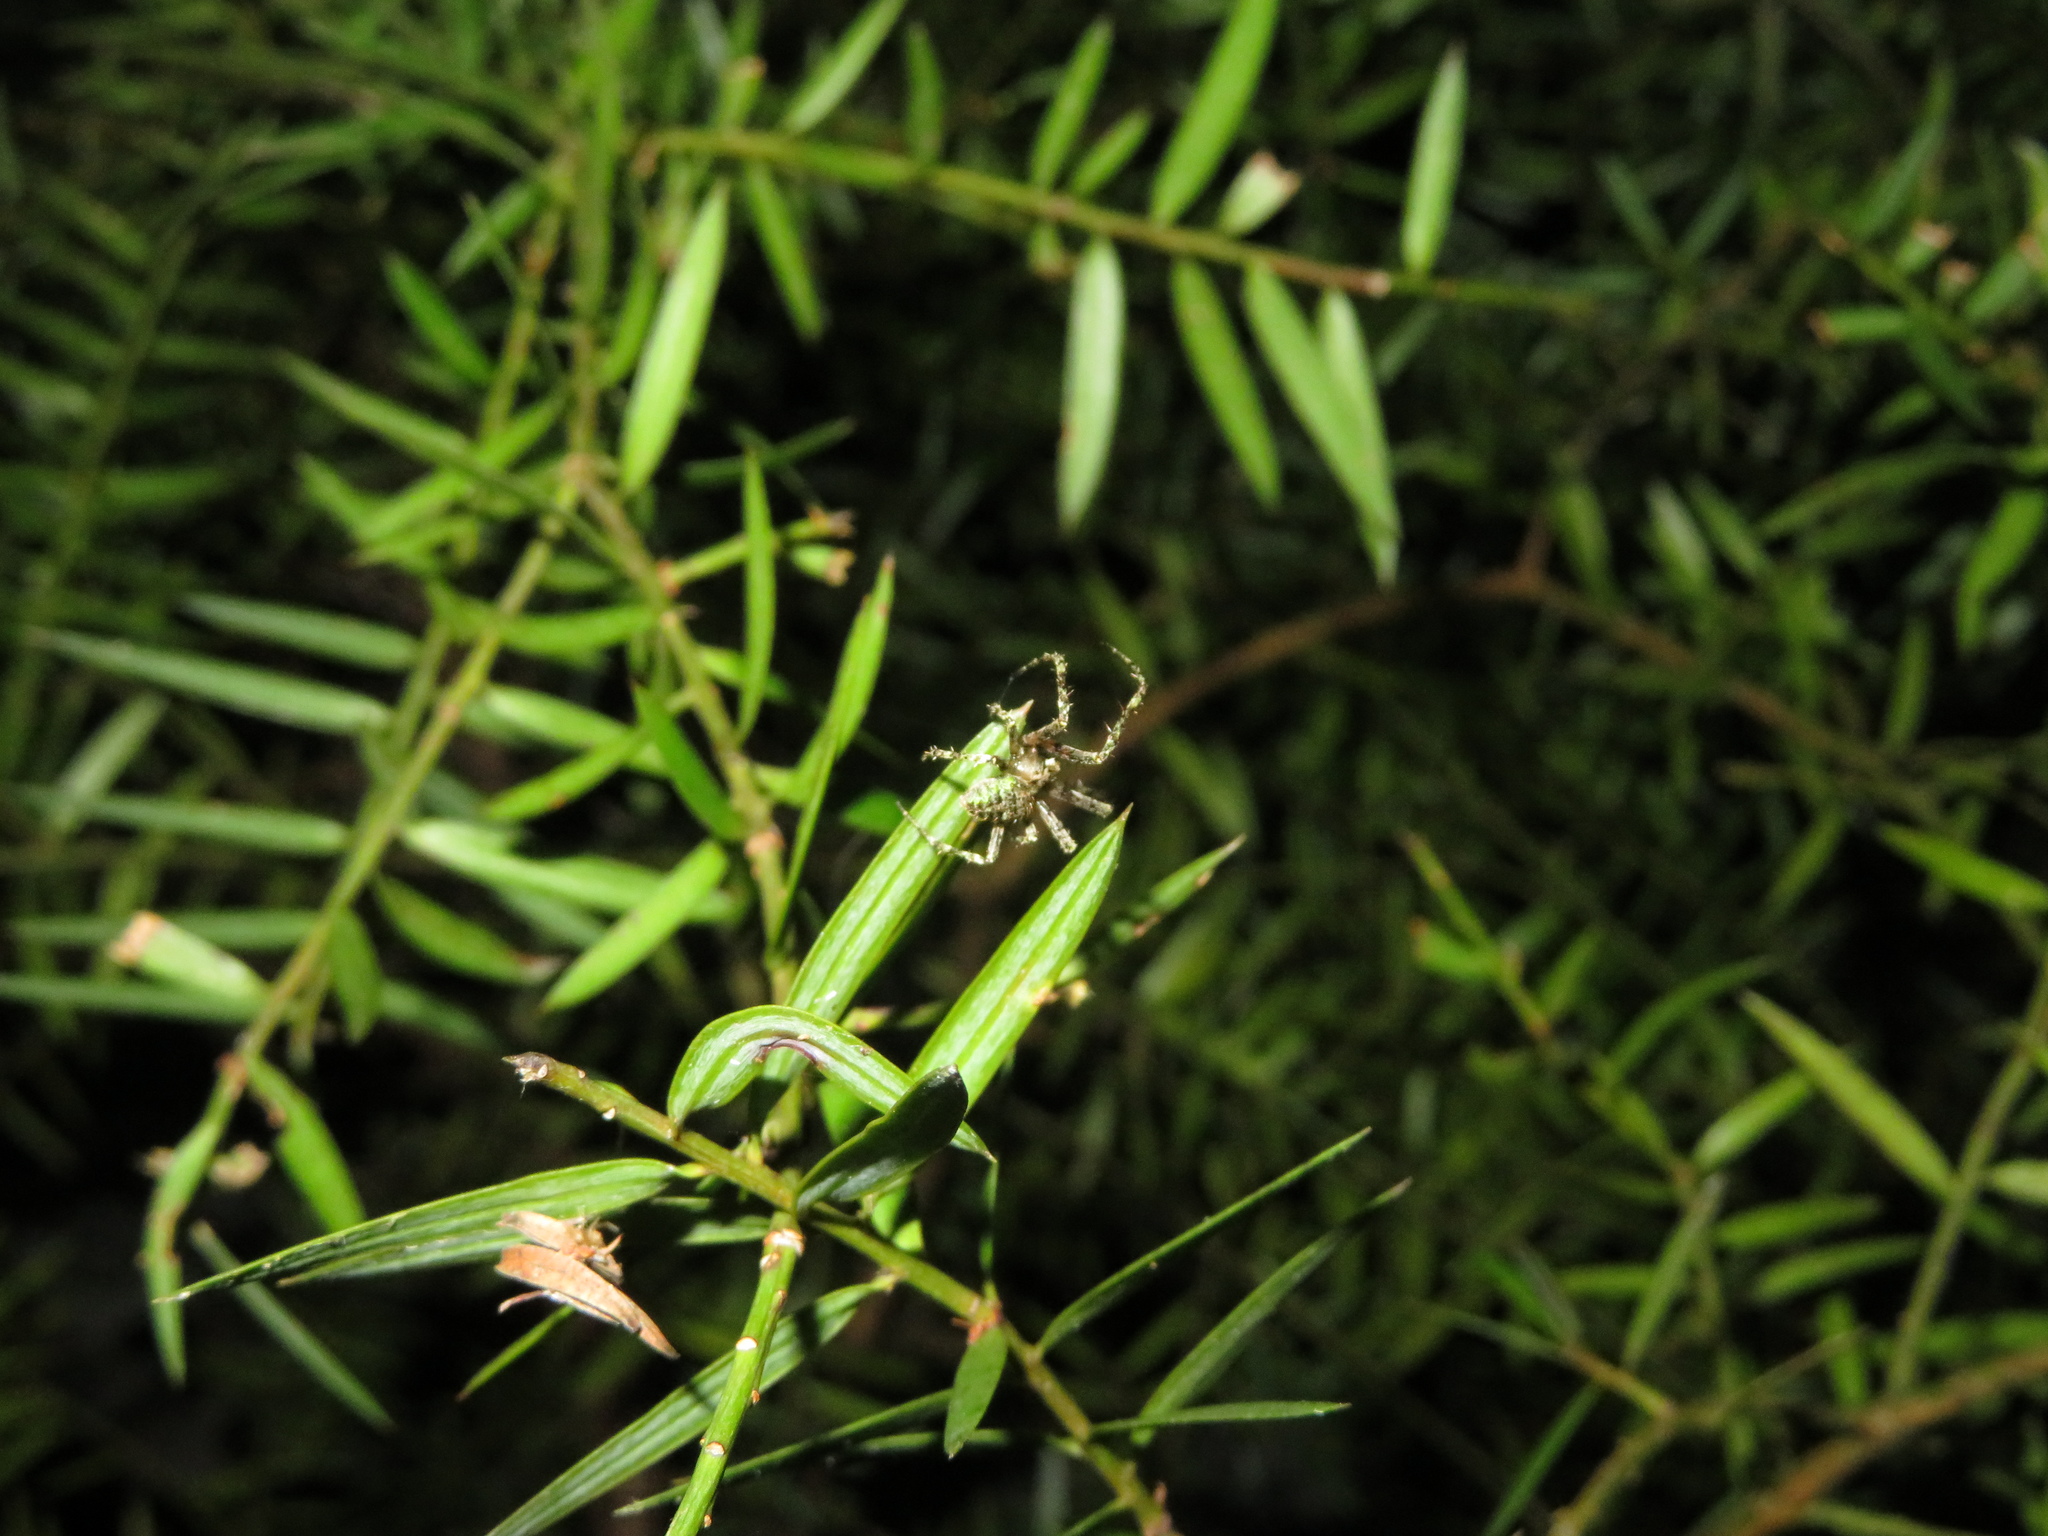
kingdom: Animalia
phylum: Arthropoda
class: Arachnida
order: Araneae
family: Araneidae
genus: Cryptaranea
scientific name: Cryptaranea atrihastula
